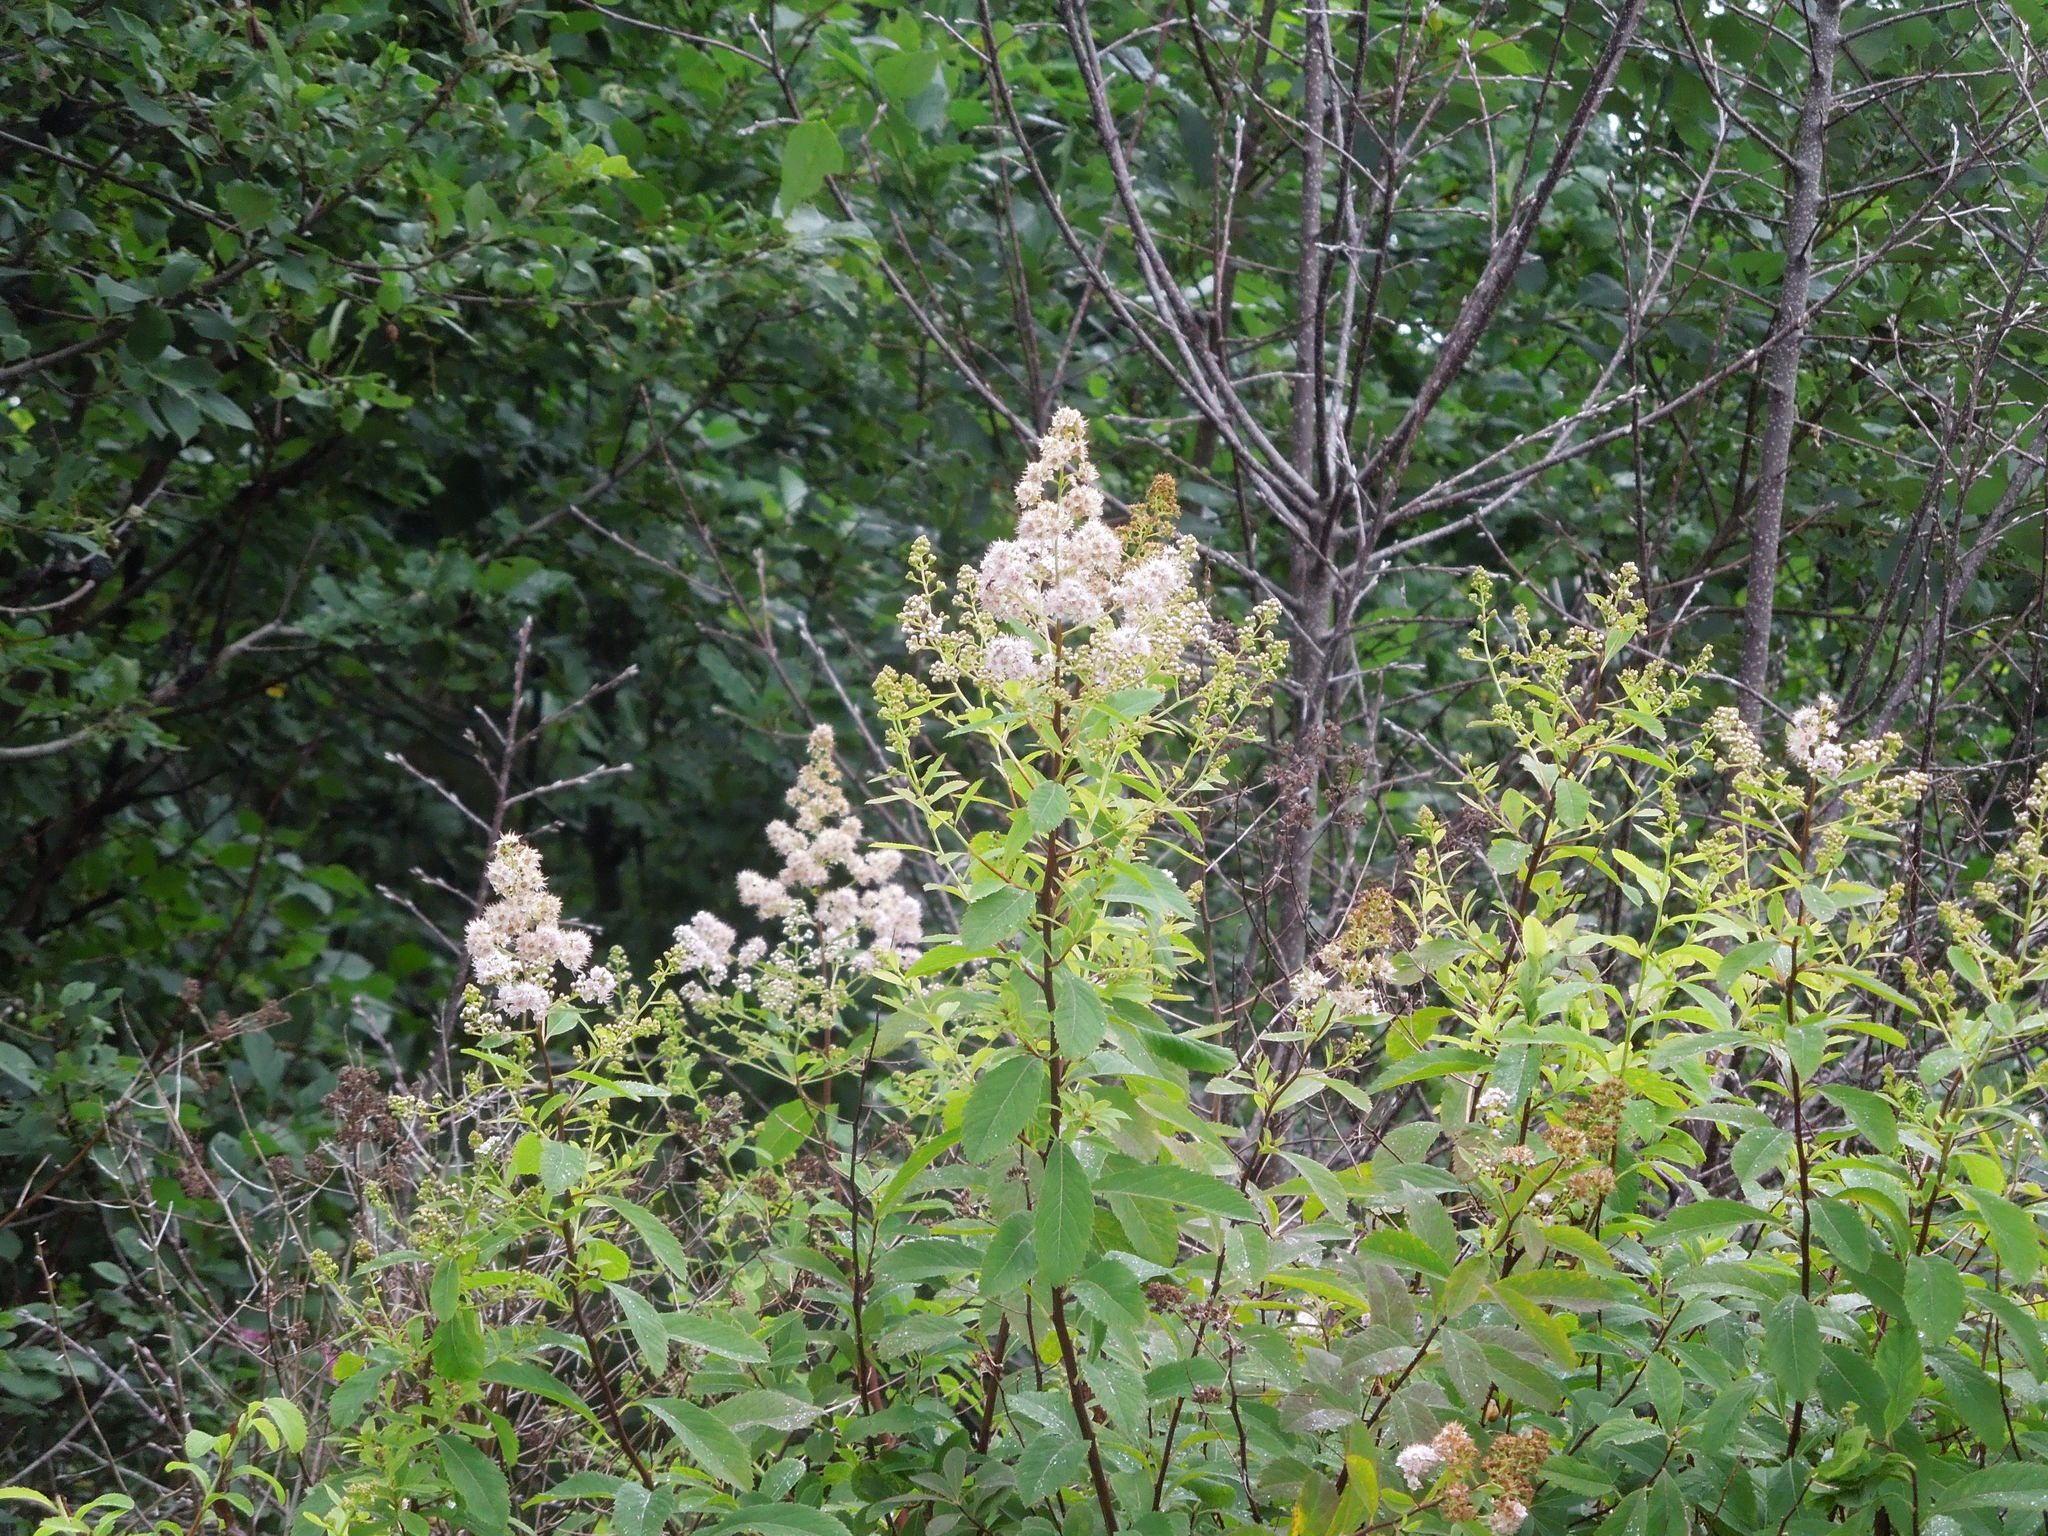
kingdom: Plantae
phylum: Tracheophyta
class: Magnoliopsida
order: Rosales
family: Rosaceae
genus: Spiraea
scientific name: Spiraea alba
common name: Pale bridewort
